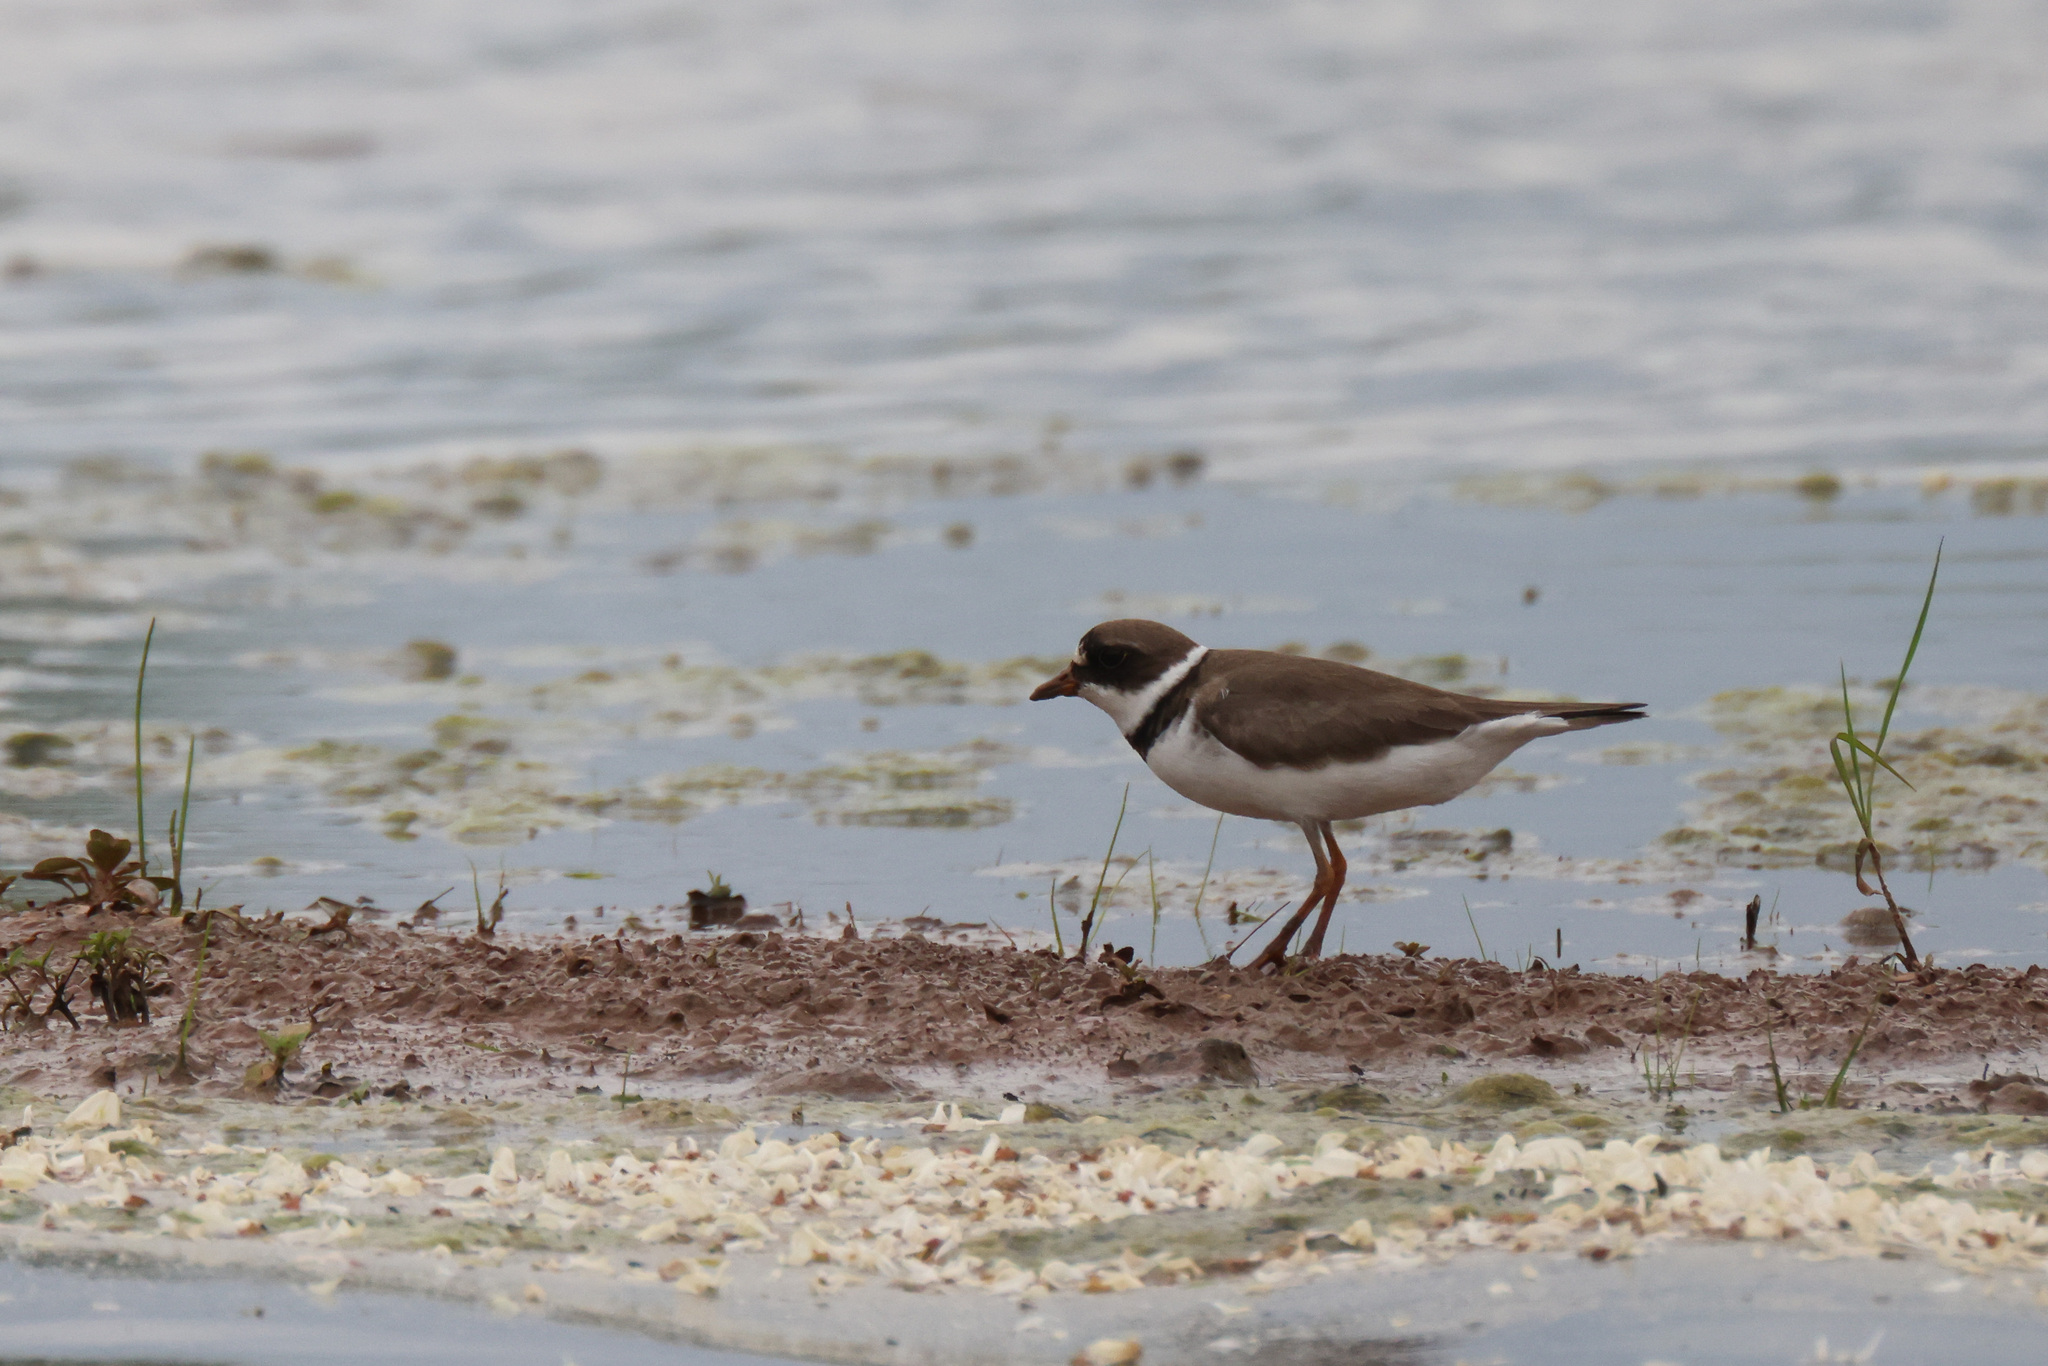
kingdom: Animalia
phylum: Chordata
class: Aves
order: Charadriiformes
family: Charadriidae
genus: Charadrius
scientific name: Charadrius semipalmatus
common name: Semipalmated plover
